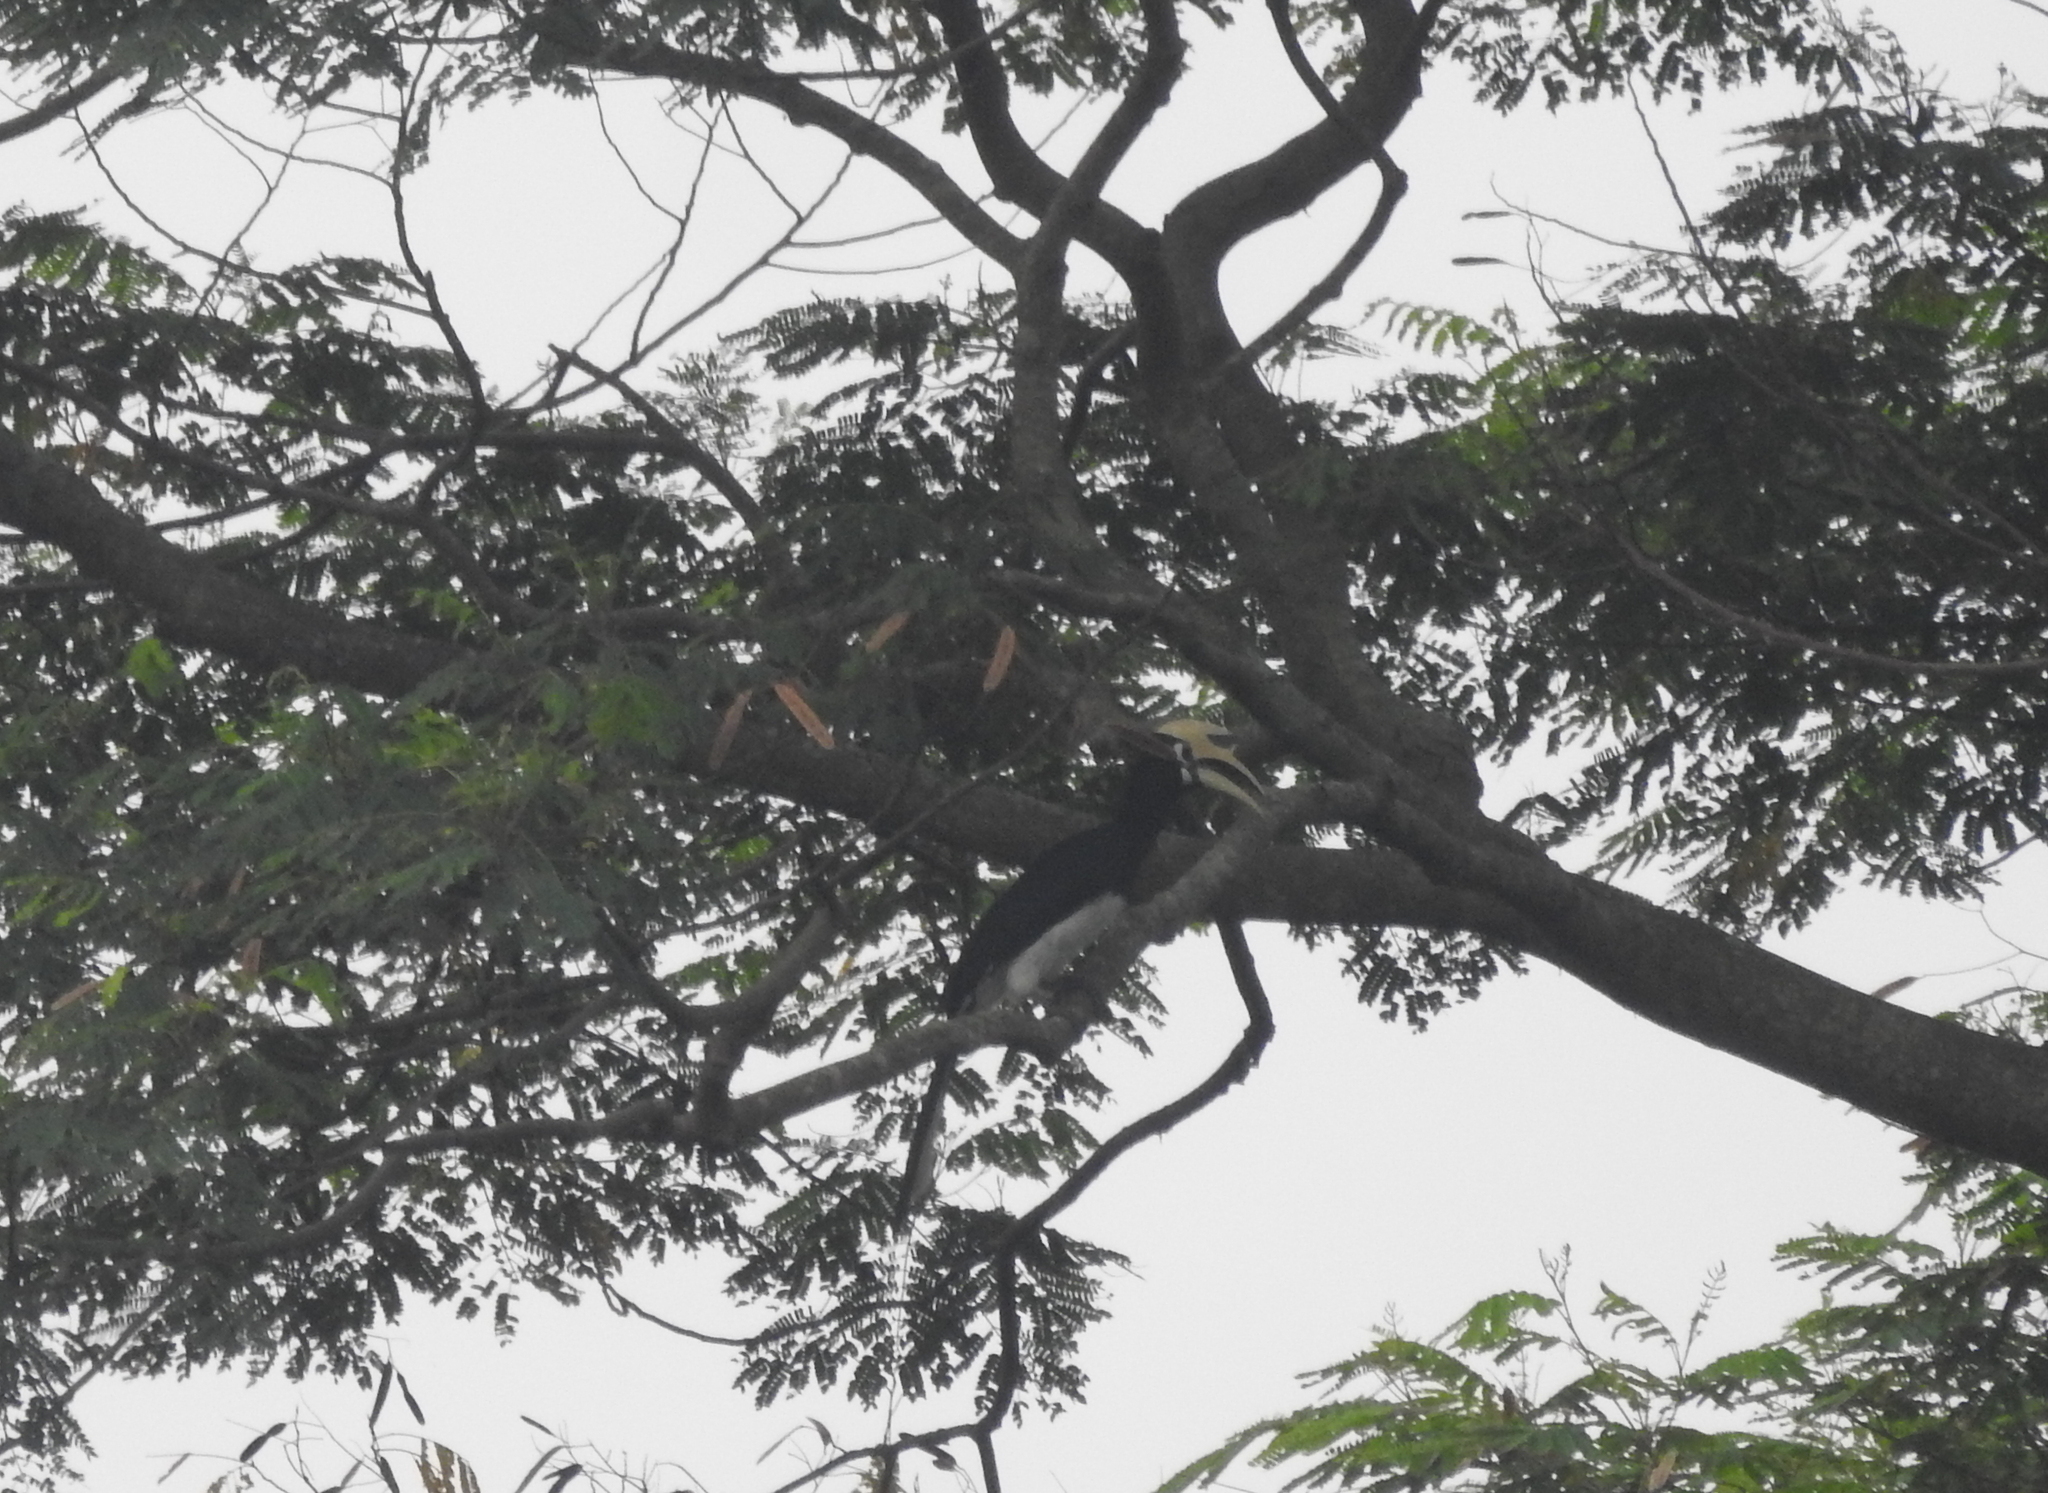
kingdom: Animalia
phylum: Chordata
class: Aves
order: Bucerotiformes
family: Bucerotidae
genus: Anthracoceros
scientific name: Anthracoceros albirostris
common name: Oriental pied-hornbill
